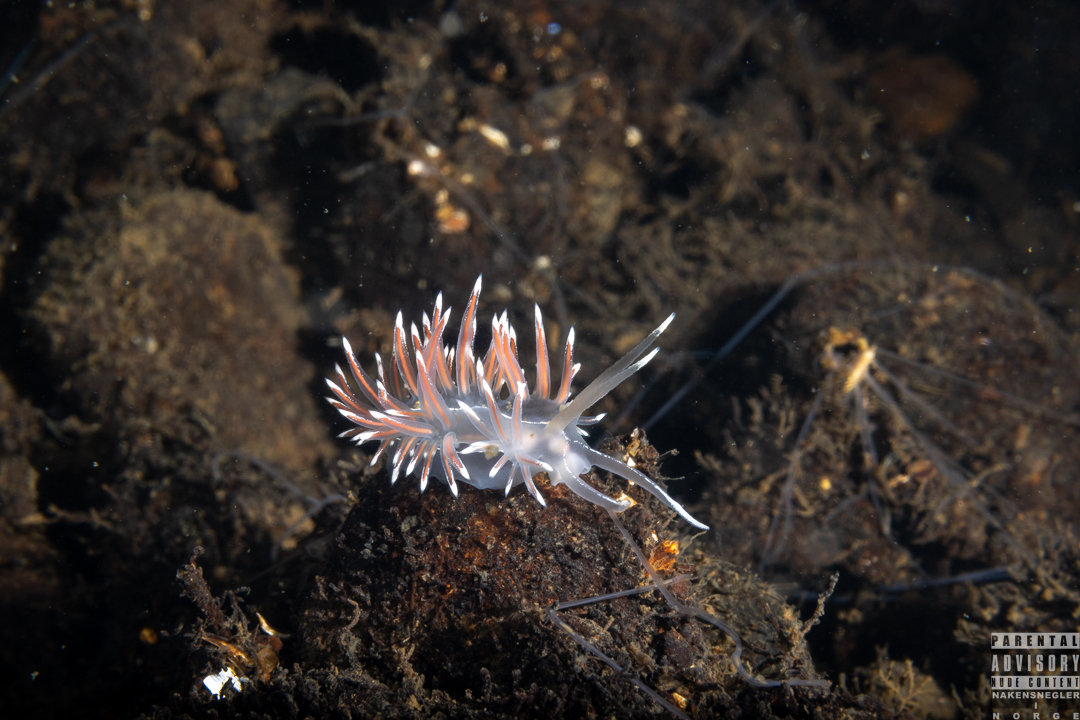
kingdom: Animalia
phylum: Mollusca
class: Gastropoda
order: Nudibranchia
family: Coryphellidae
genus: Coryphella
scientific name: Coryphella lineata
